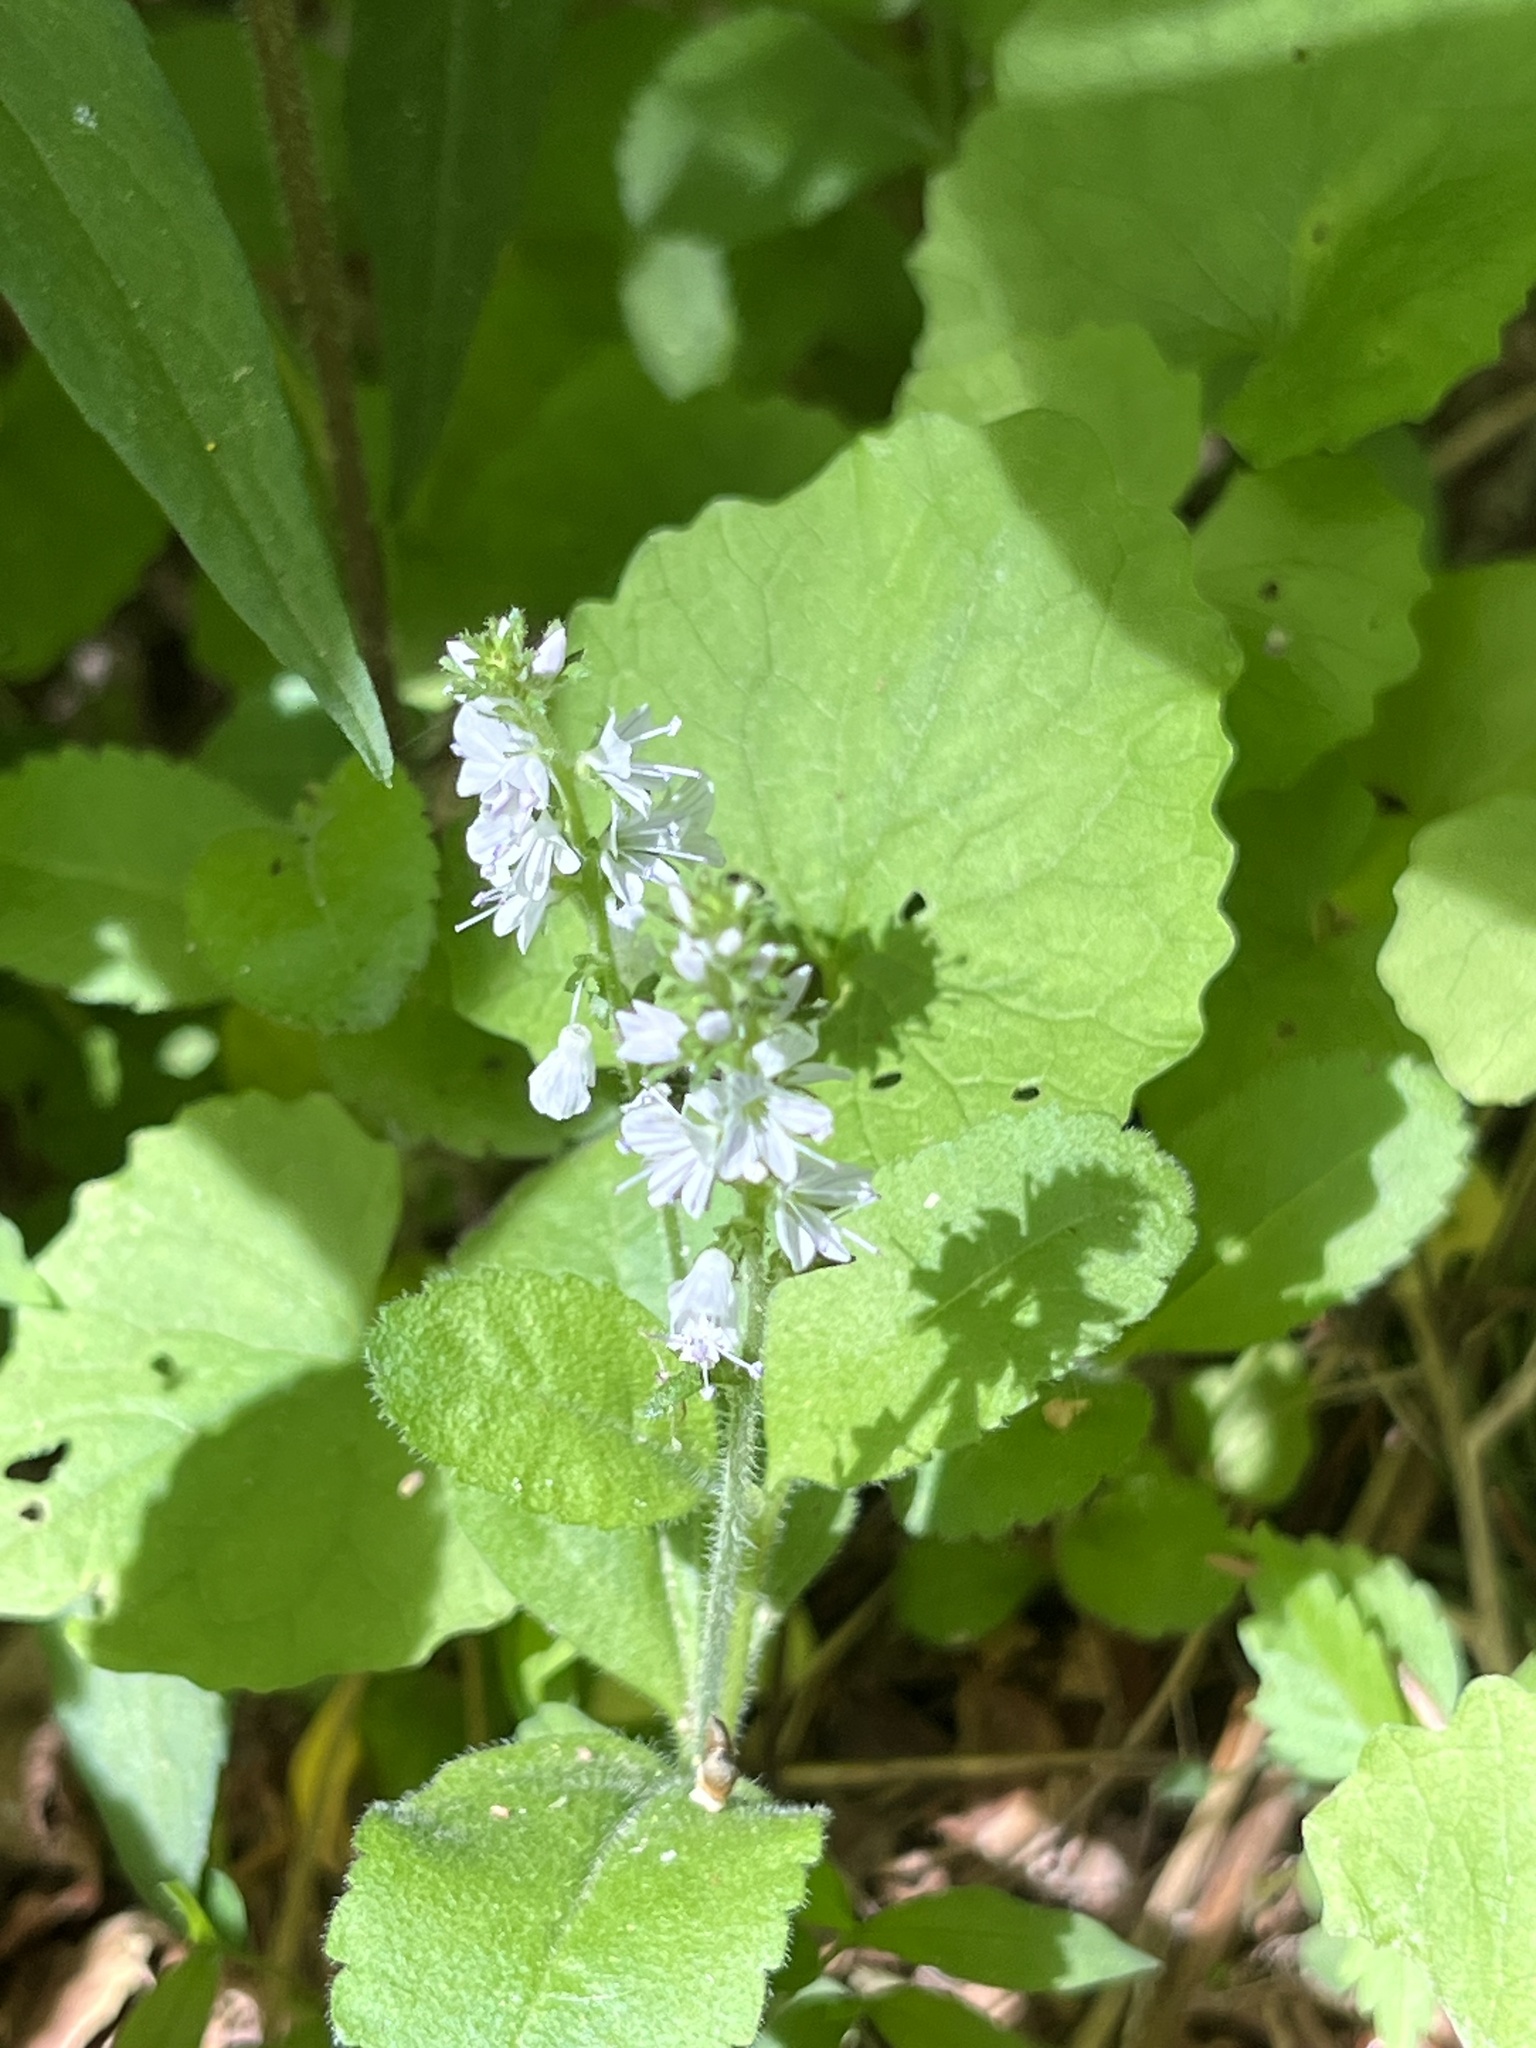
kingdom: Plantae
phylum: Tracheophyta
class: Magnoliopsida
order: Lamiales
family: Plantaginaceae
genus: Veronica
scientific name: Veronica officinalis
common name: Common speedwell
